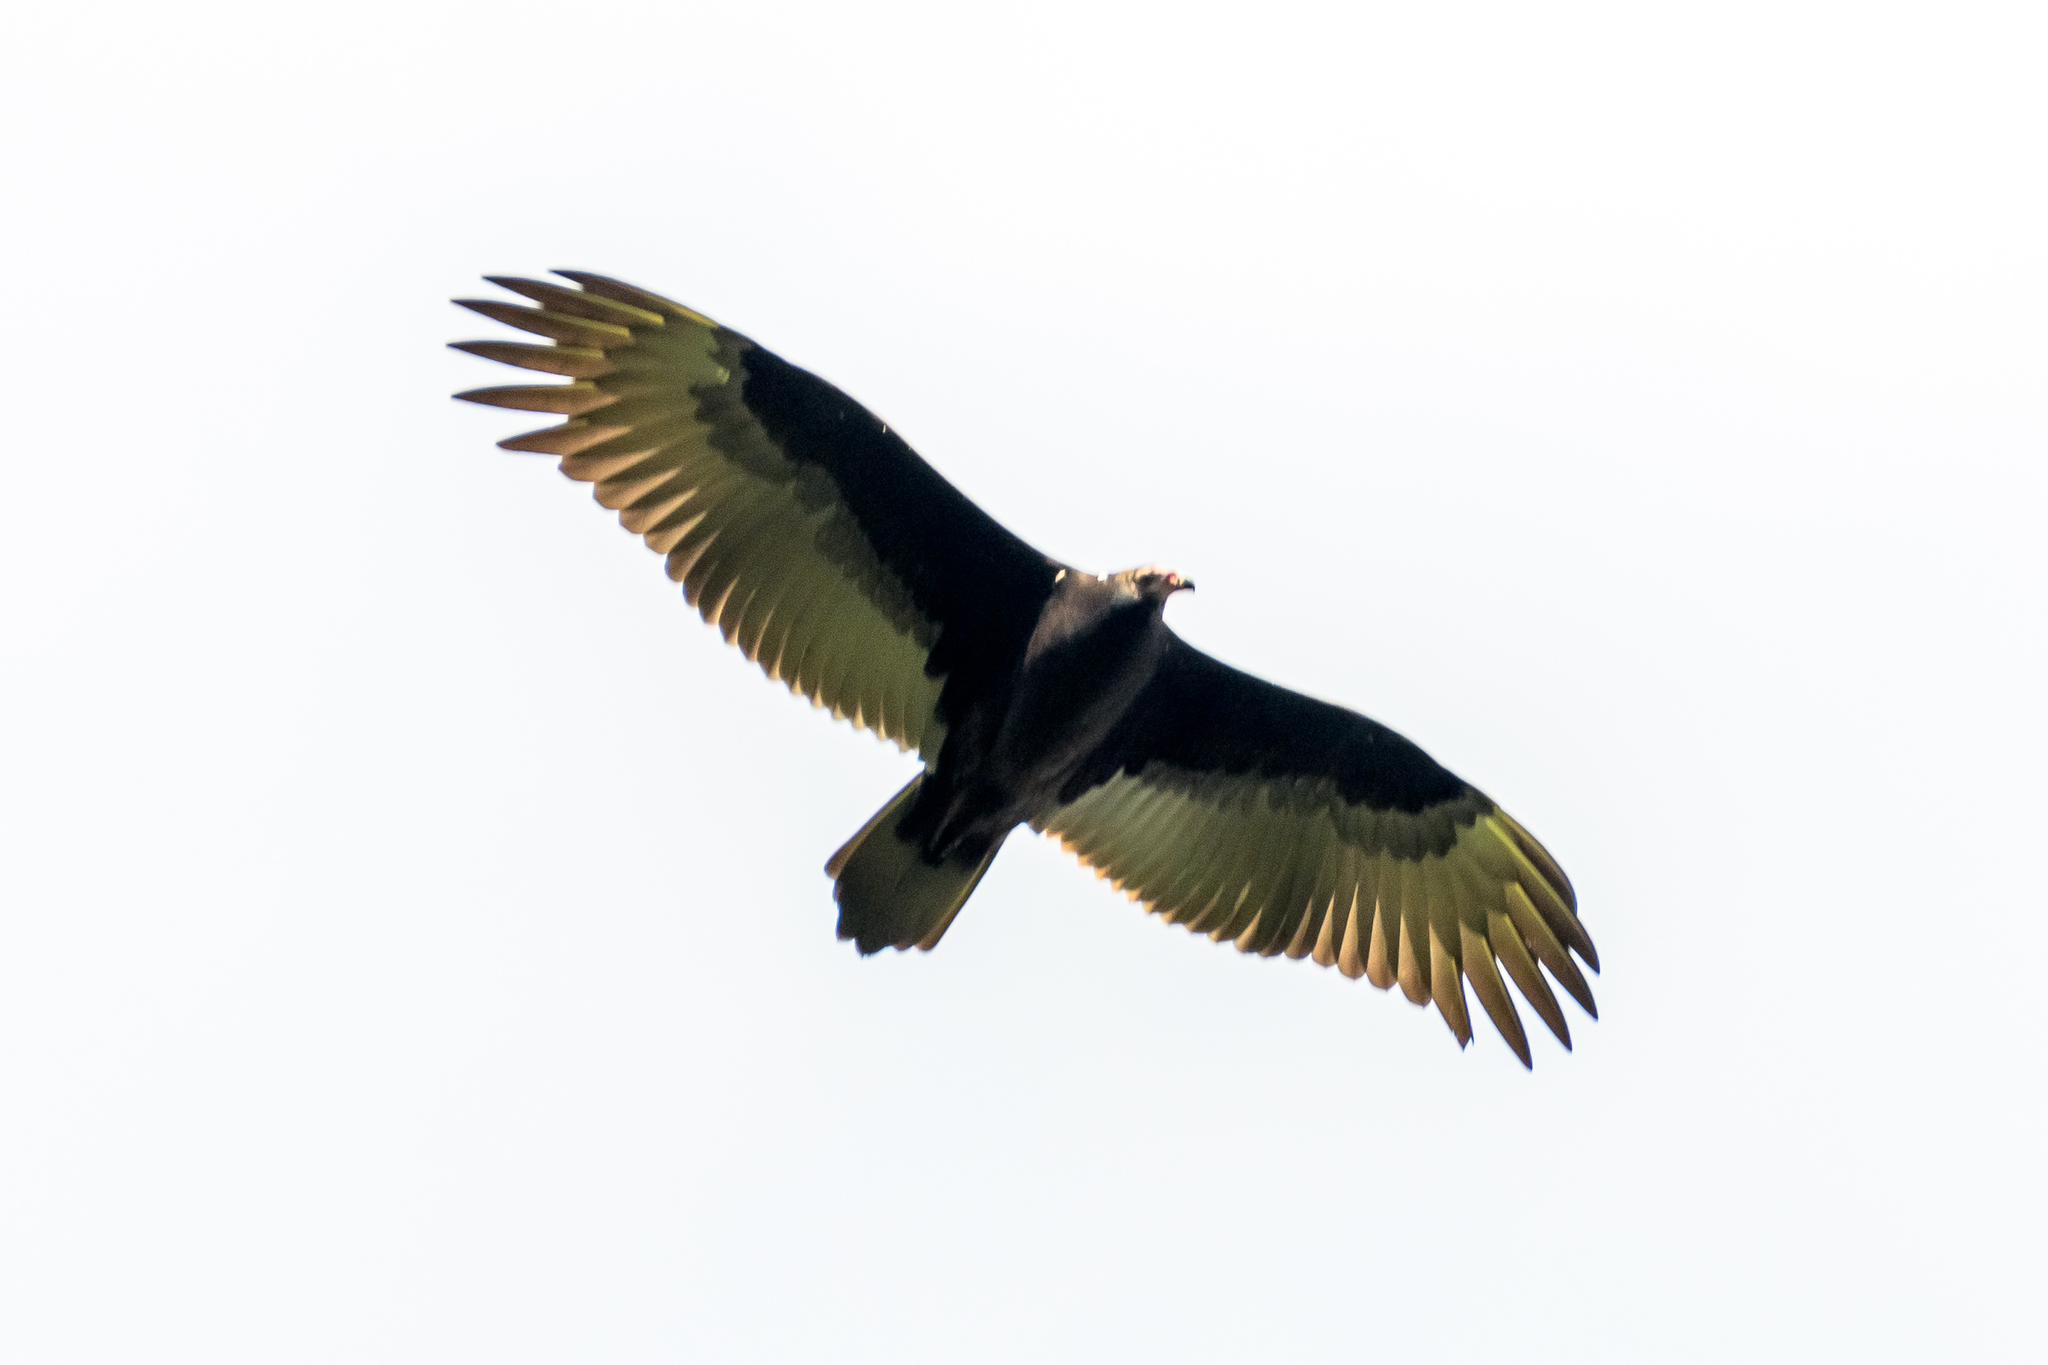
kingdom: Animalia
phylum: Chordata
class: Aves
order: Accipitriformes
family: Cathartidae
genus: Cathartes
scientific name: Cathartes aura
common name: Turkey vulture
